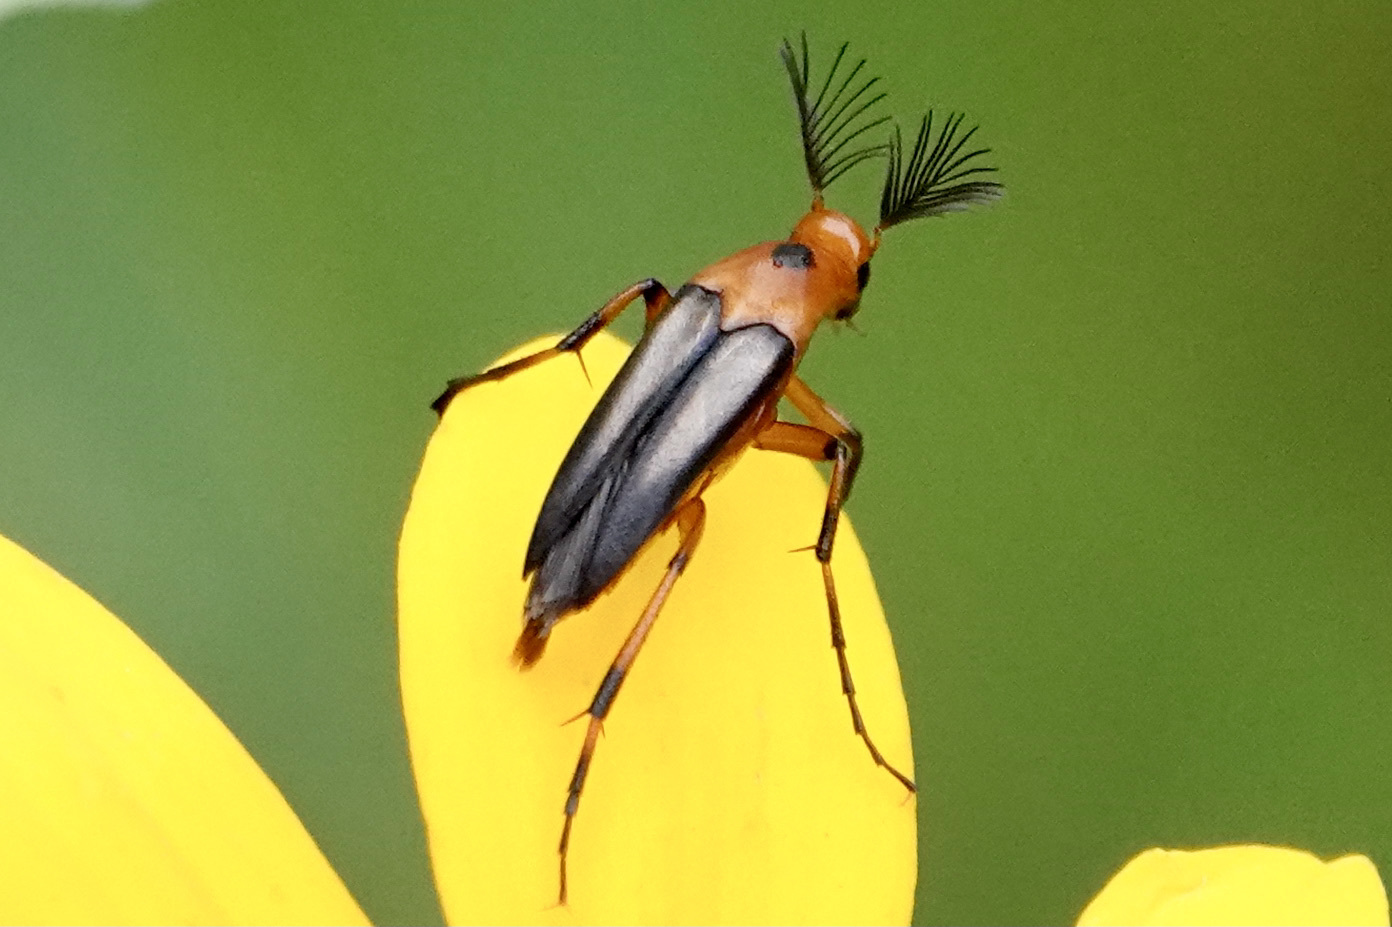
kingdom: Animalia
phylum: Arthropoda
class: Insecta
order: Coleoptera
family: Ripiphoridae
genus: Macrosiagon
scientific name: Macrosiagon limbatum
